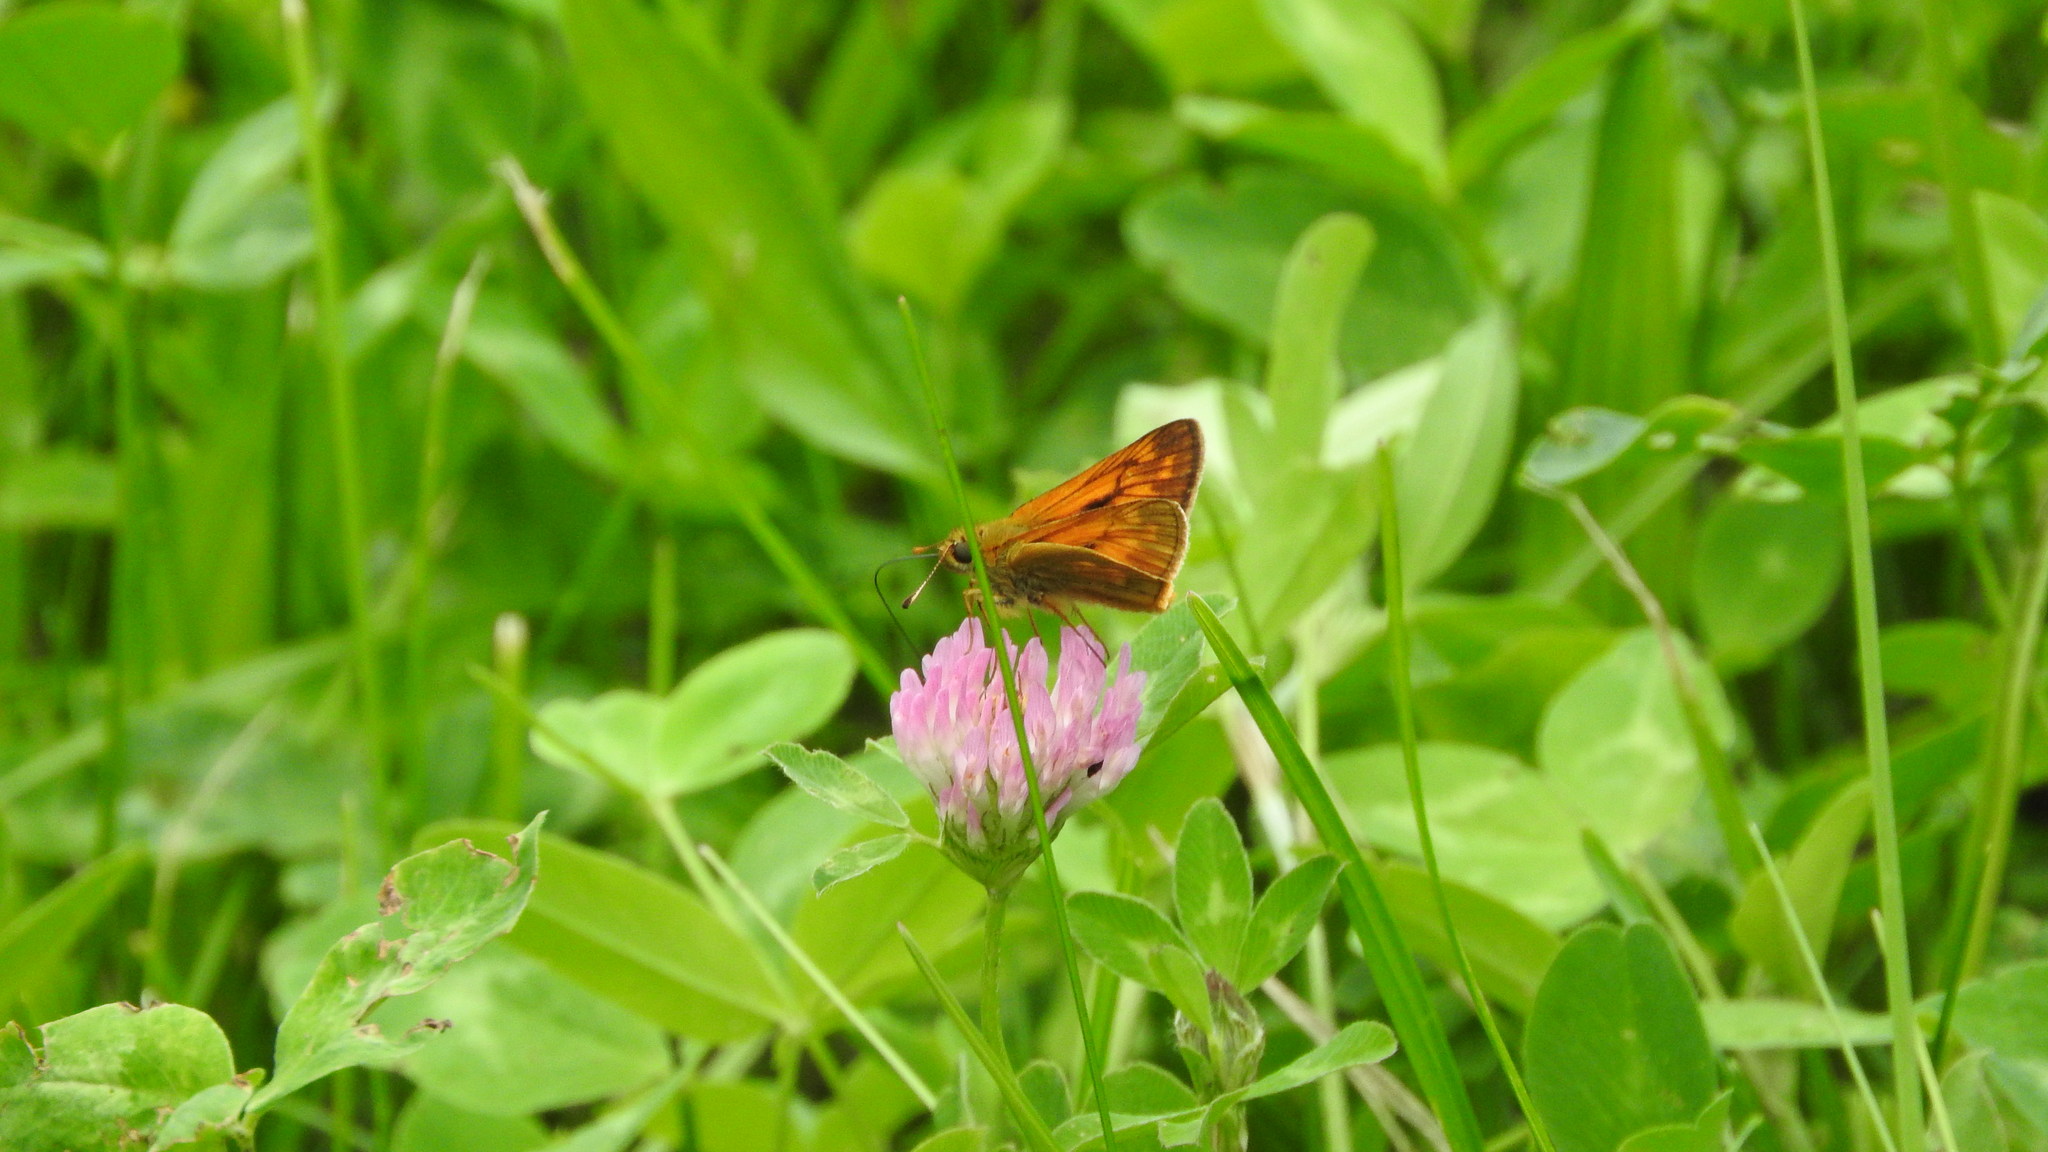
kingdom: Animalia
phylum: Arthropoda
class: Insecta
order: Lepidoptera
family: Hesperiidae
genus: Ochlodes
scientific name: Ochlodes venata
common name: Large skipper
